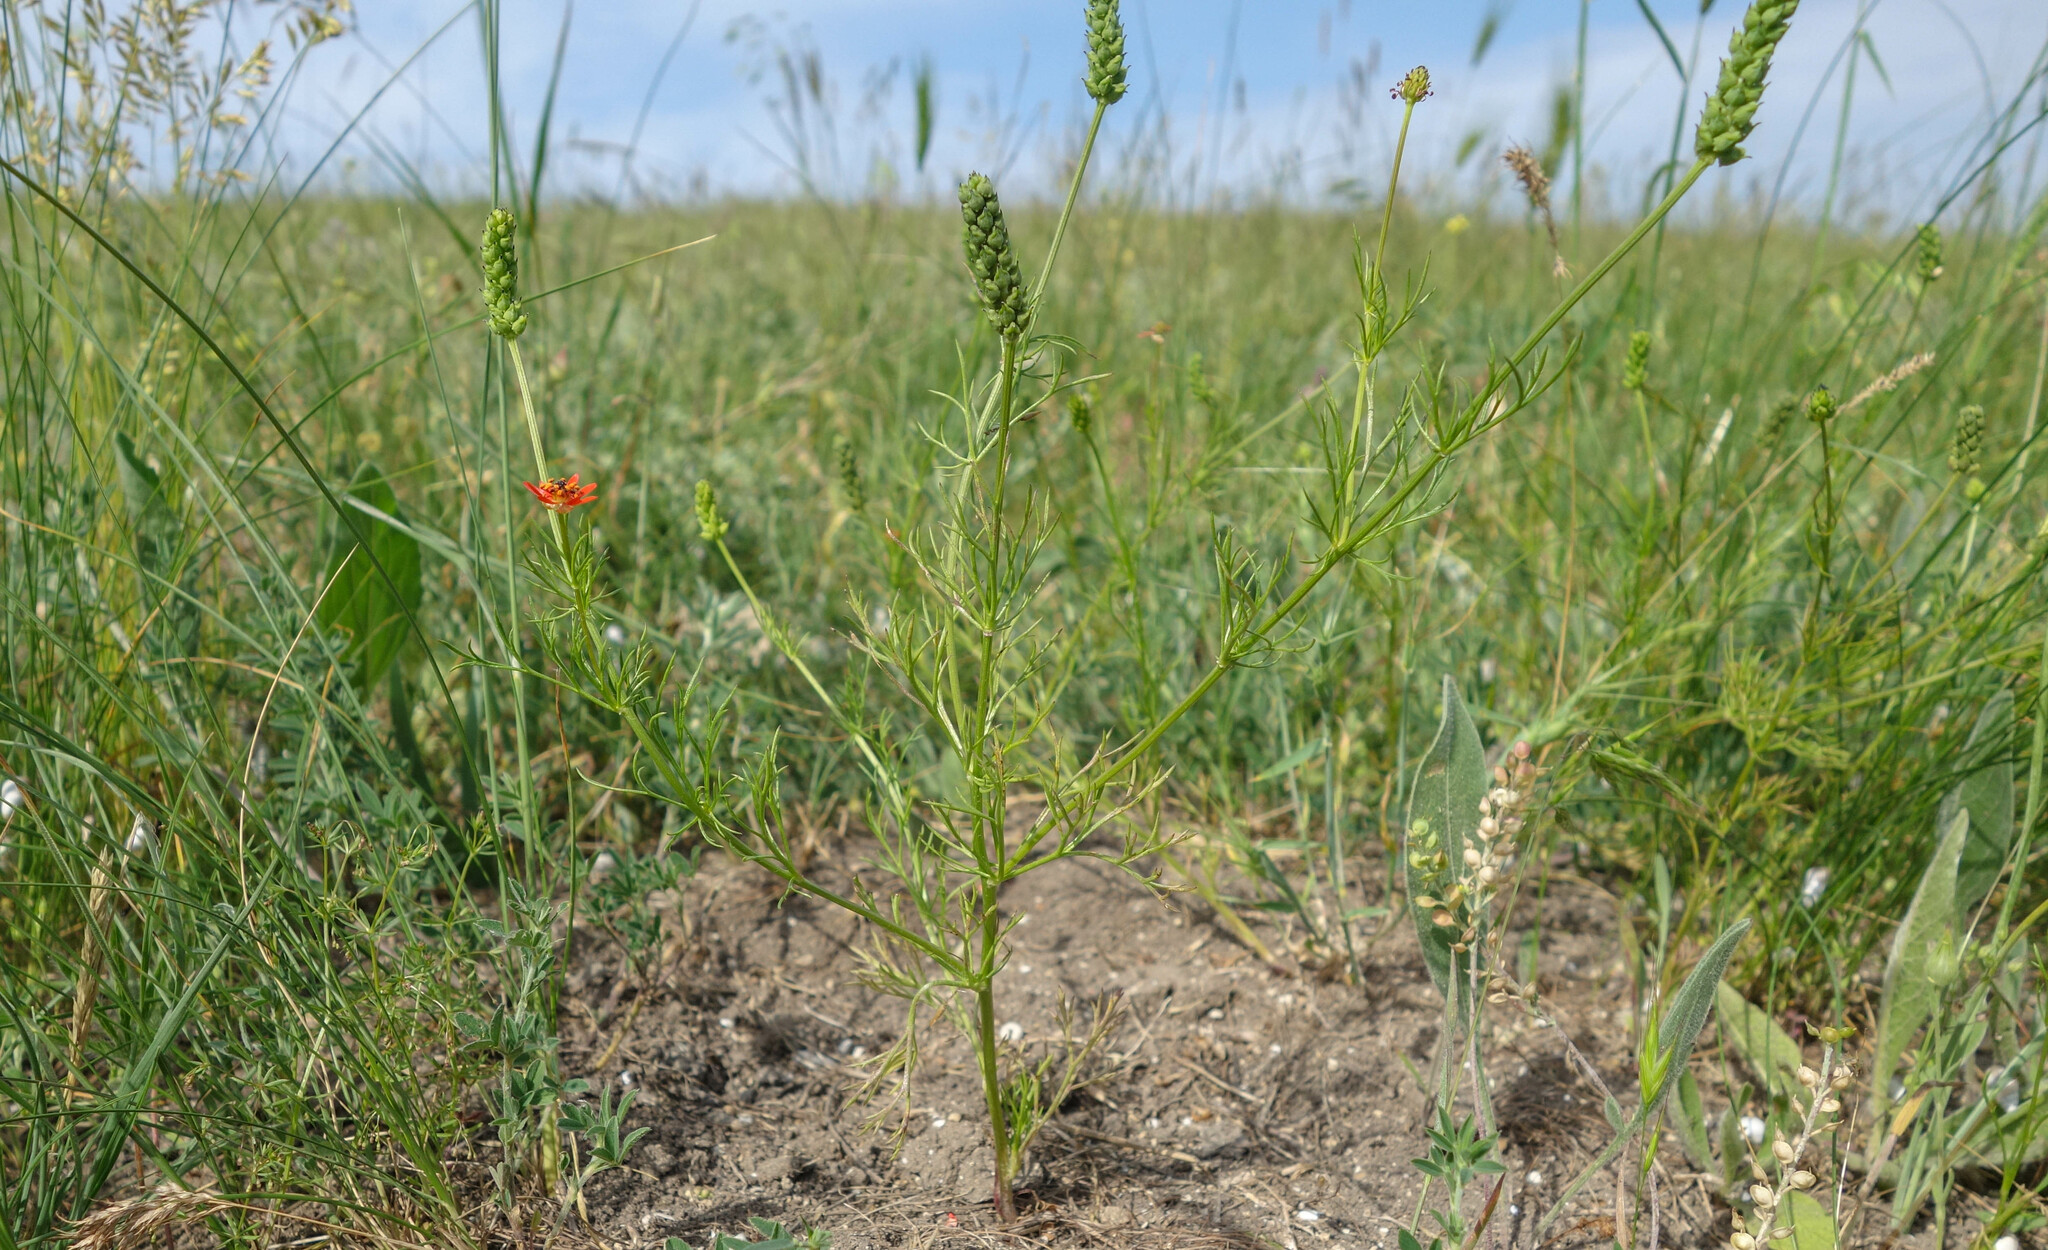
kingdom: Plantae
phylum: Tracheophyta
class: Magnoliopsida
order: Ranunculales
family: Ranunculaceae
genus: Adonis
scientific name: Adonis flammea
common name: Large pheasant's-eye
